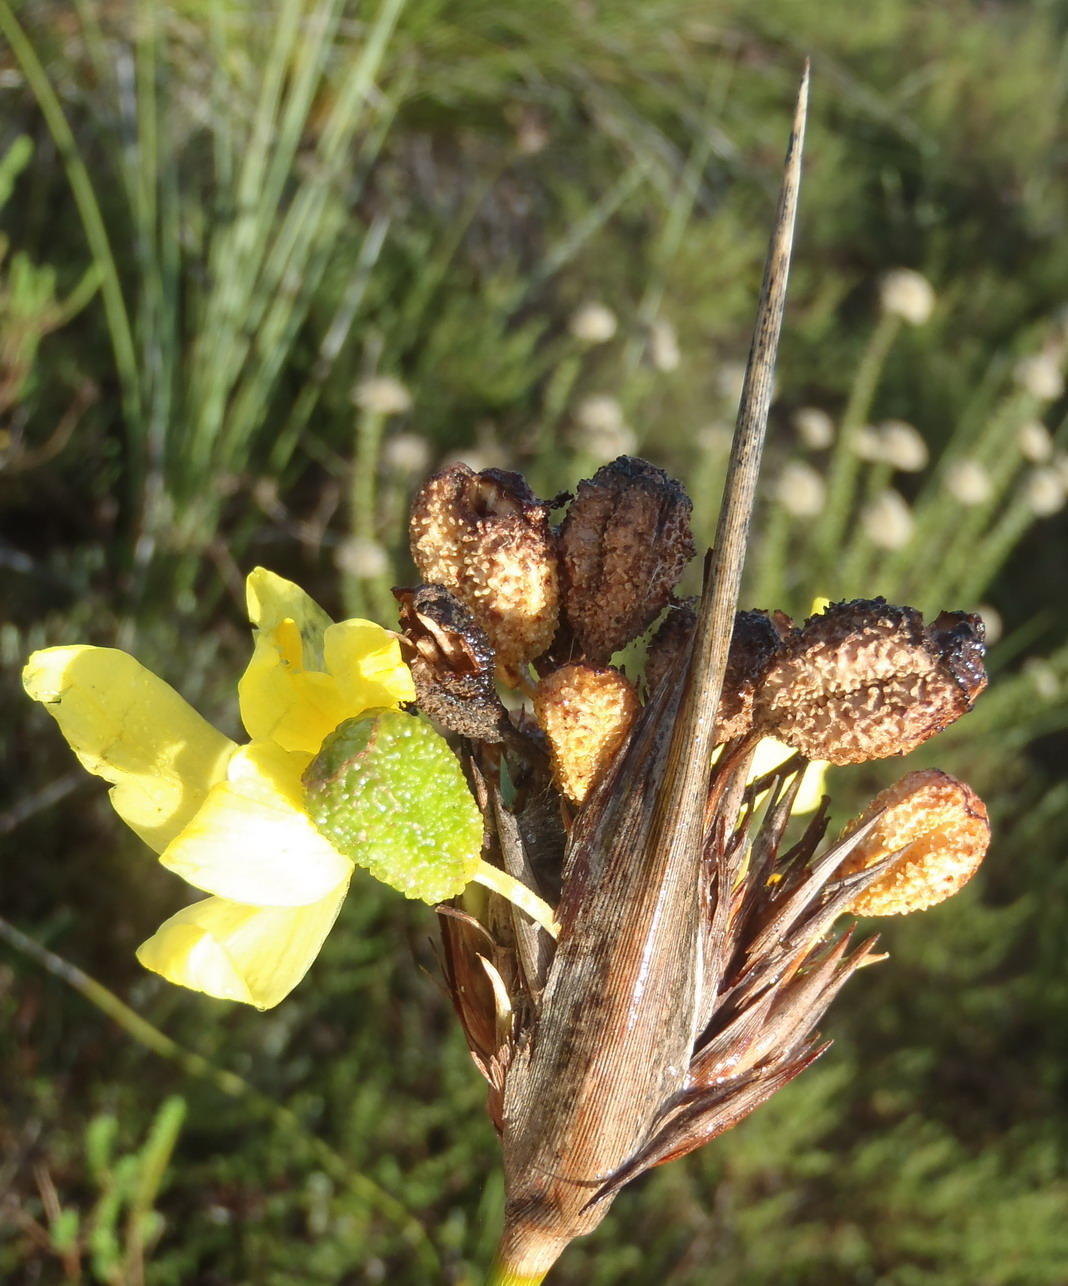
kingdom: Plantae
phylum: Tracheophyta
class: Liliopsida
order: Asparagales
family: Iridaceae
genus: Bobartia
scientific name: Bobartia robusta
